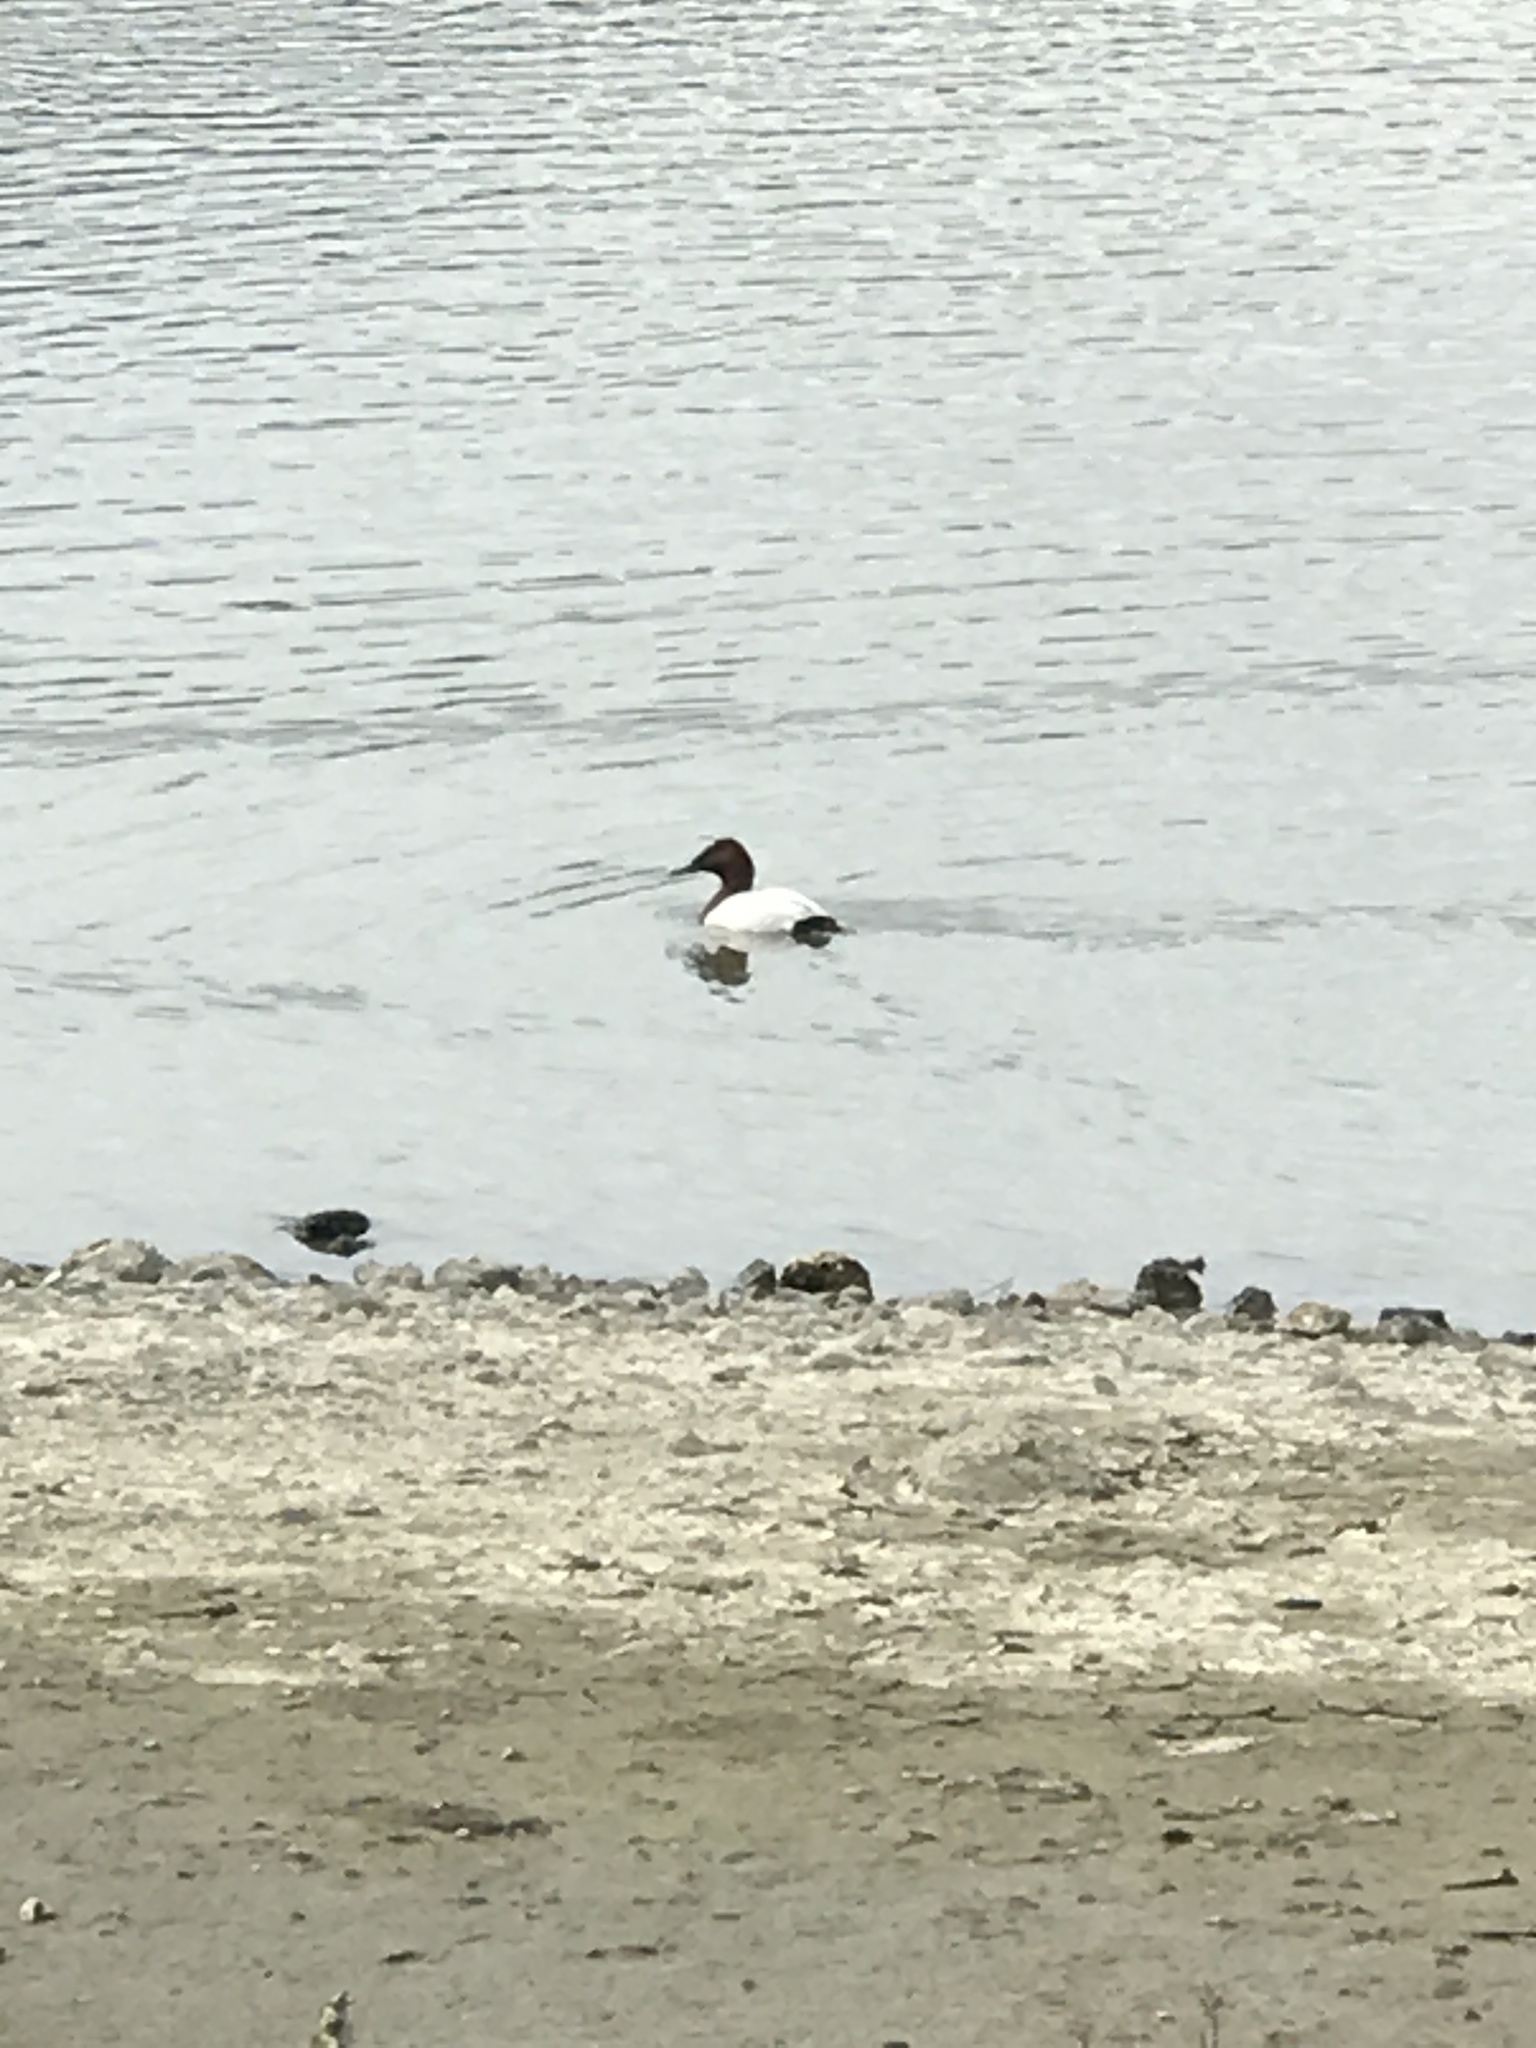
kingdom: Animalia
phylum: Chordata
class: Aves
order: Anseriformes
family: Anatidae
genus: Aythya
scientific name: Aythya valisineria
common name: Canvasback
